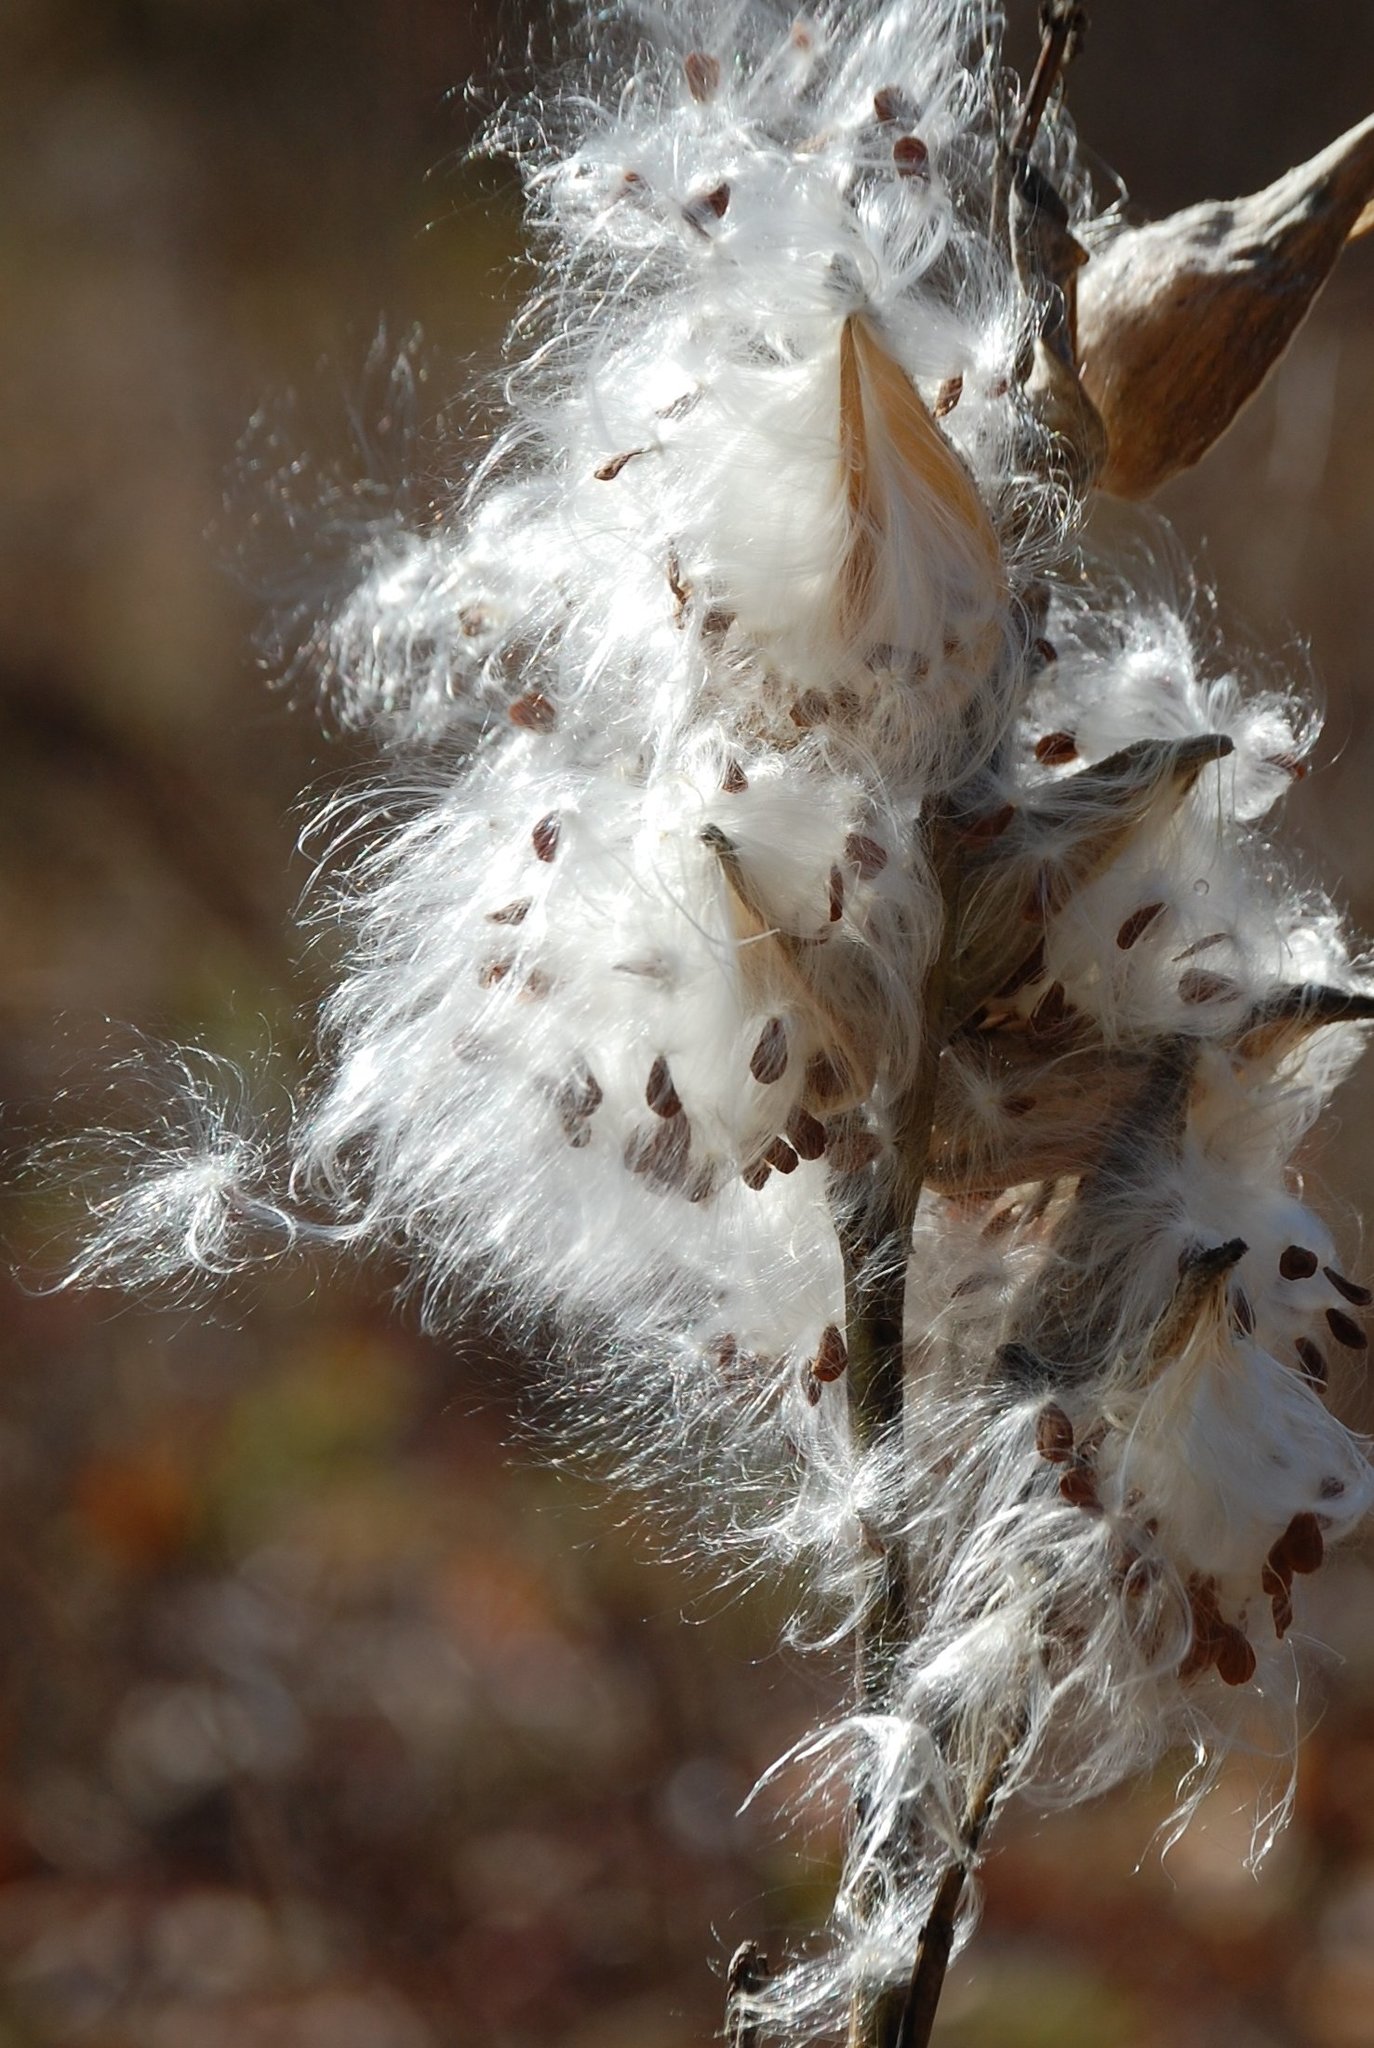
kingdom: Plantae
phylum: Tracheophyta
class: Magnoliopsida
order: Gentianales
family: Apocynaceae
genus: Asclepias
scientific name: Asclepias syriaca
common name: Common milkweed
